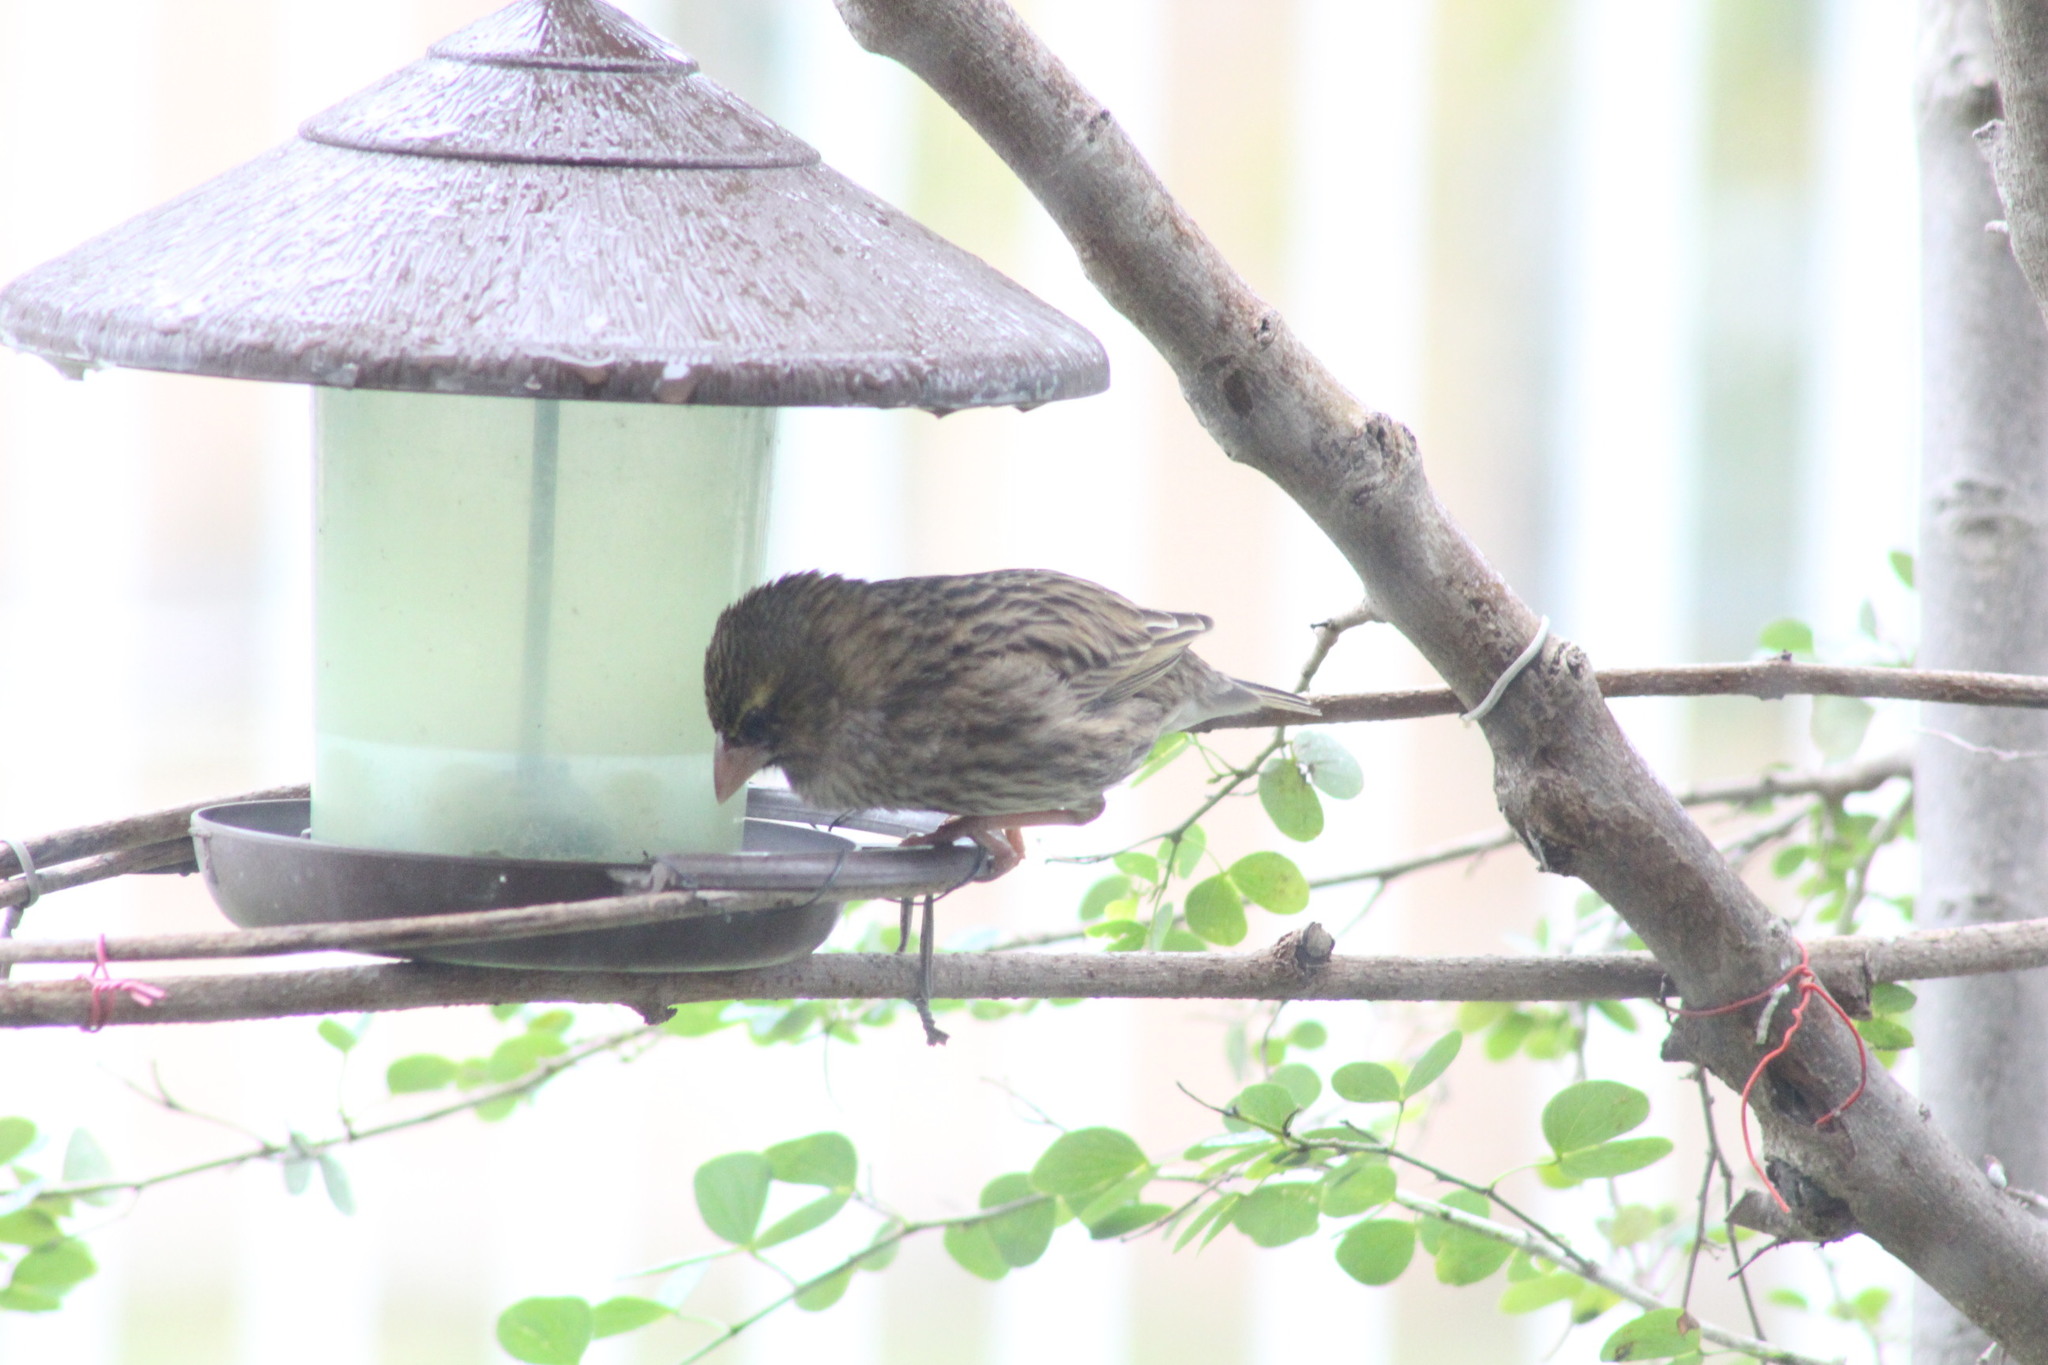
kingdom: Animalia
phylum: Chordata
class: Aves
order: Passeriformes
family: Ploceidae
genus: Euplectes
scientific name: Euplectes capensis
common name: Yellow bishop
